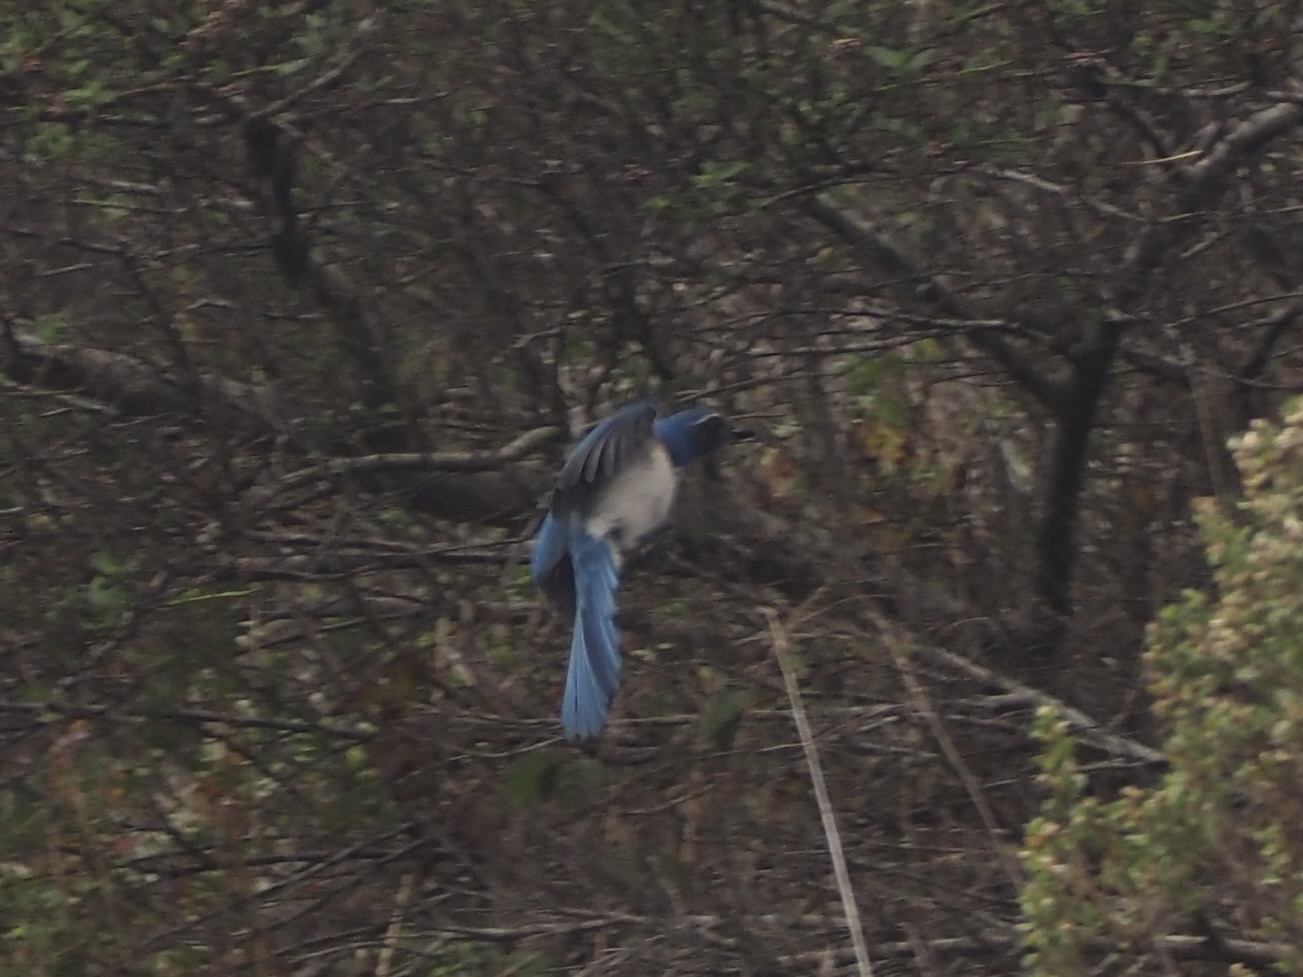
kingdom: Animalia
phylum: Chordata
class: Aves
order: Passeriformes
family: Corvidae
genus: Aphelocoma
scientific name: Aphelocoma californica
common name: California scrub-jay
